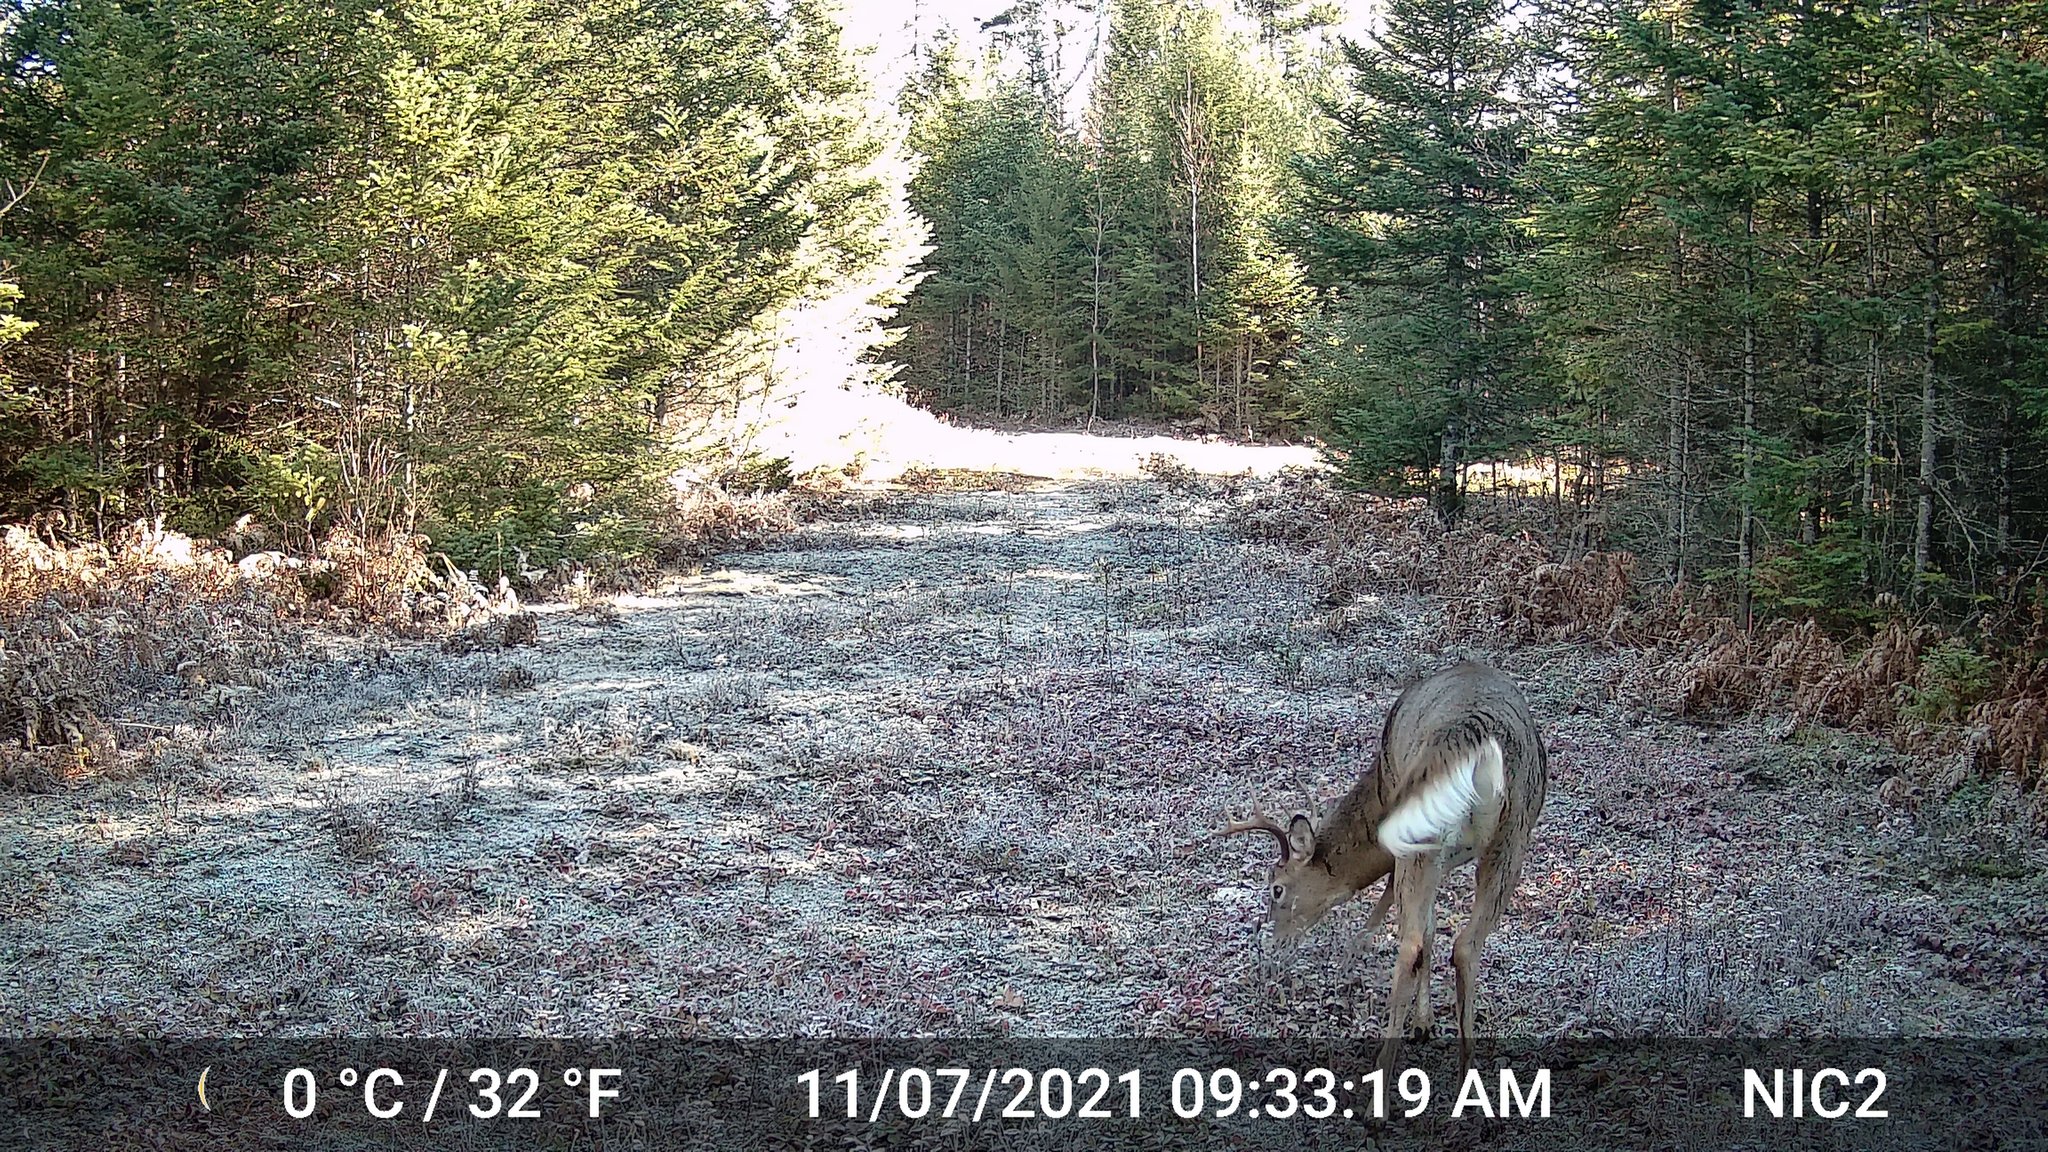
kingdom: Animalia
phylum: Chordata
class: Mammalia
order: Artiodactyla
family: Cervidae
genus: Odocoileus
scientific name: Odocoileus virginianus
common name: White-tailed deer
